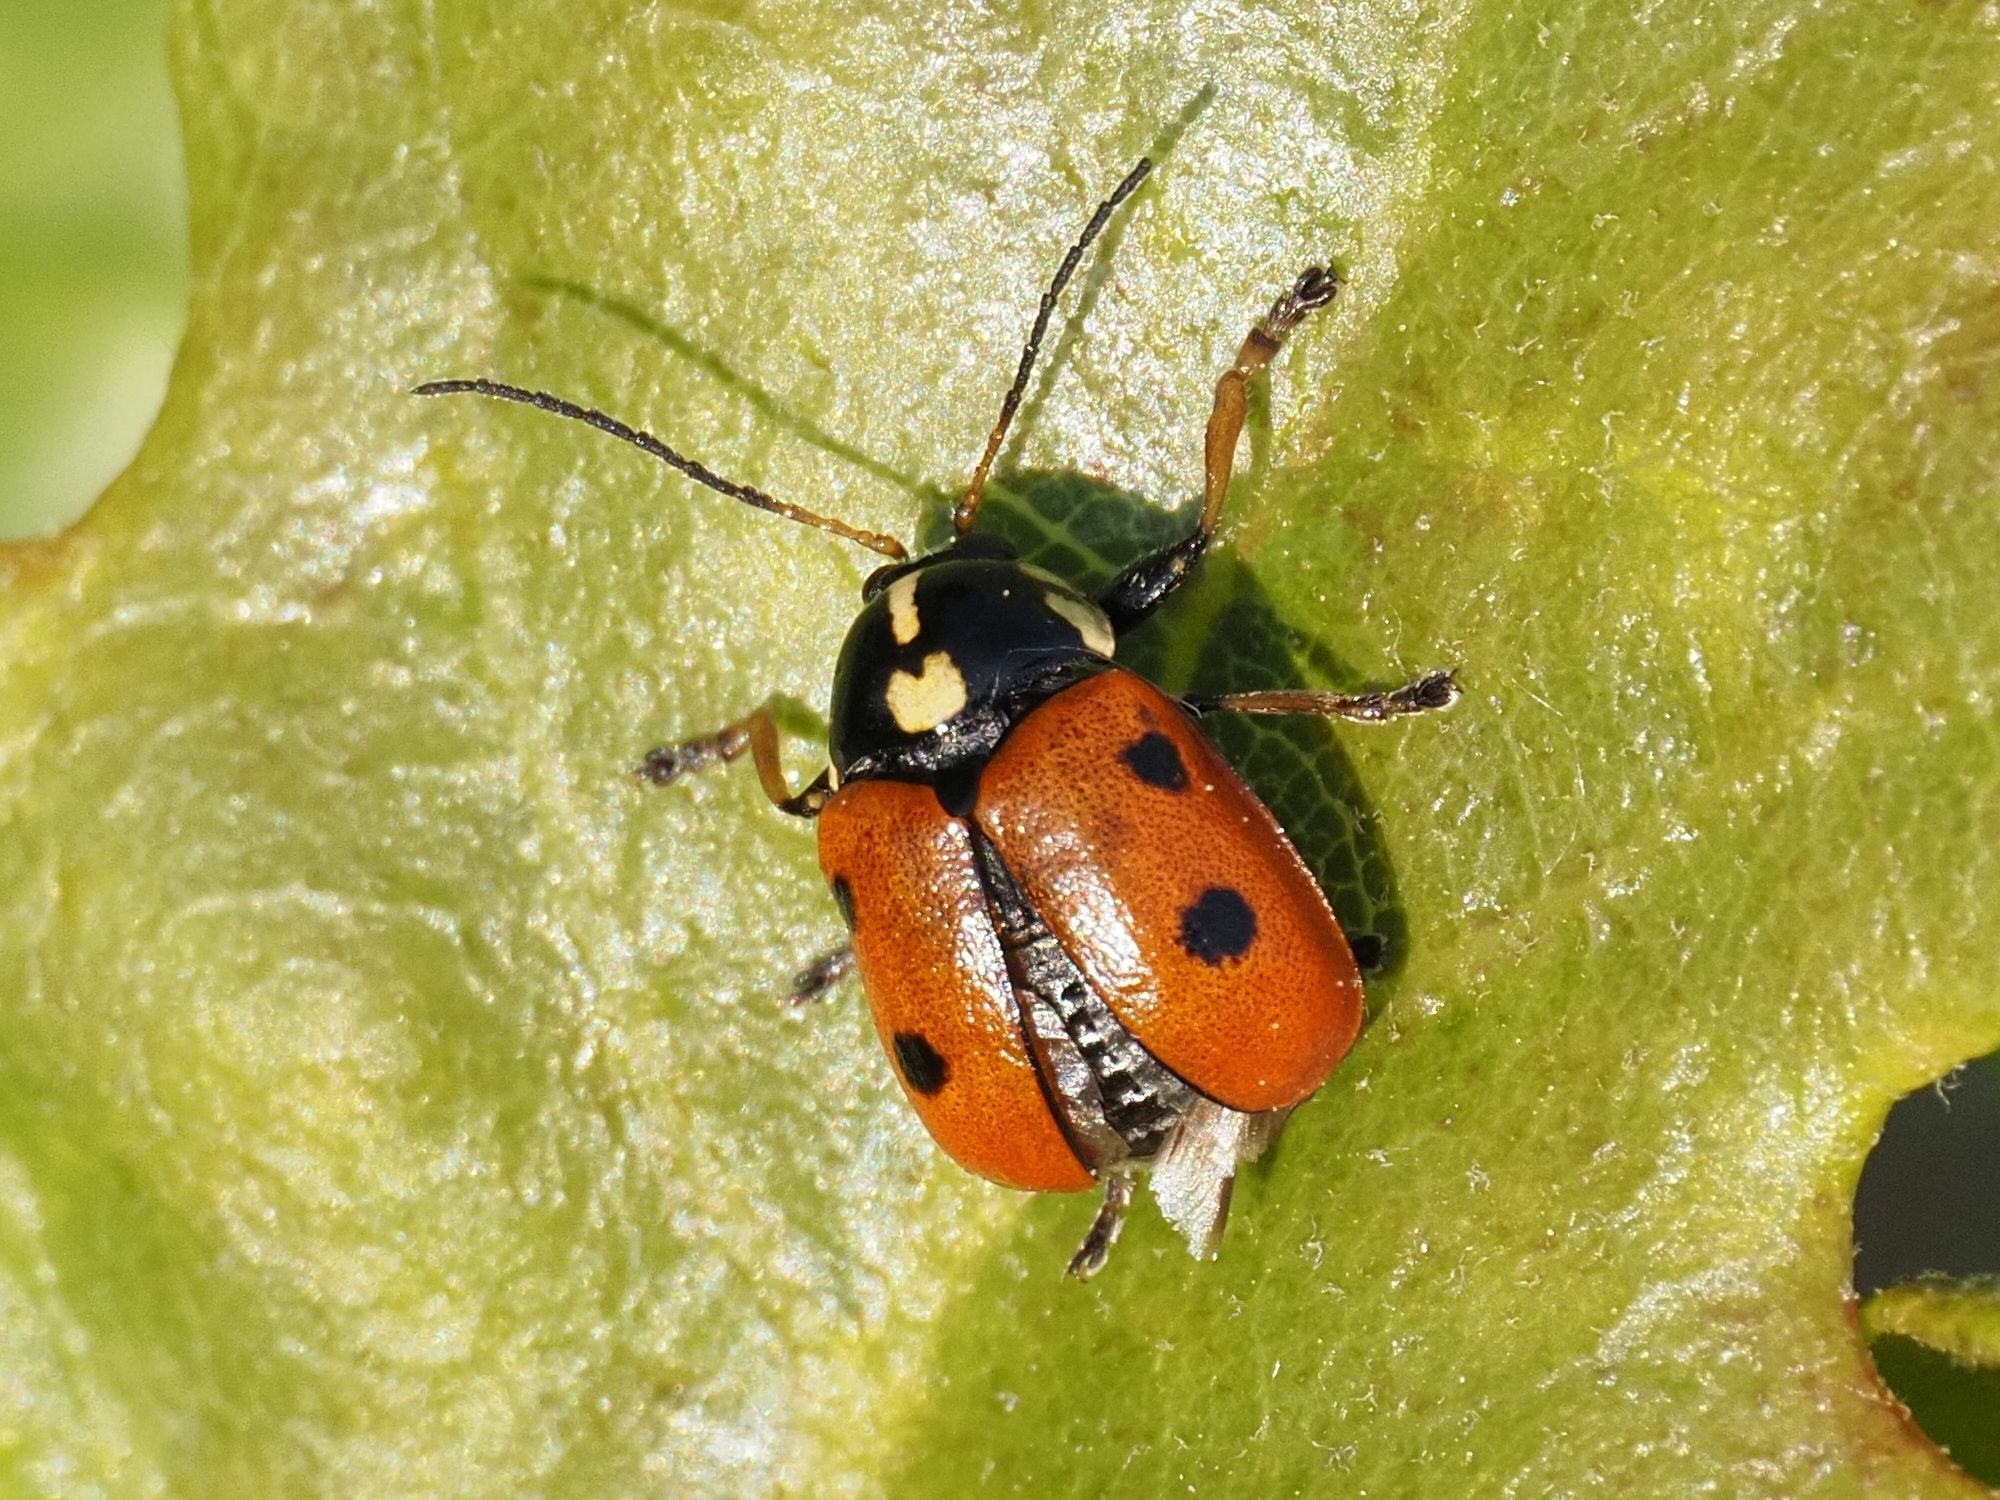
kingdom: Animalia
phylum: Arthropoda
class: Insecta
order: Coleoptera
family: Chrysomelidae
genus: Cryptocephalus
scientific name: Cryptocephalus cordiger
